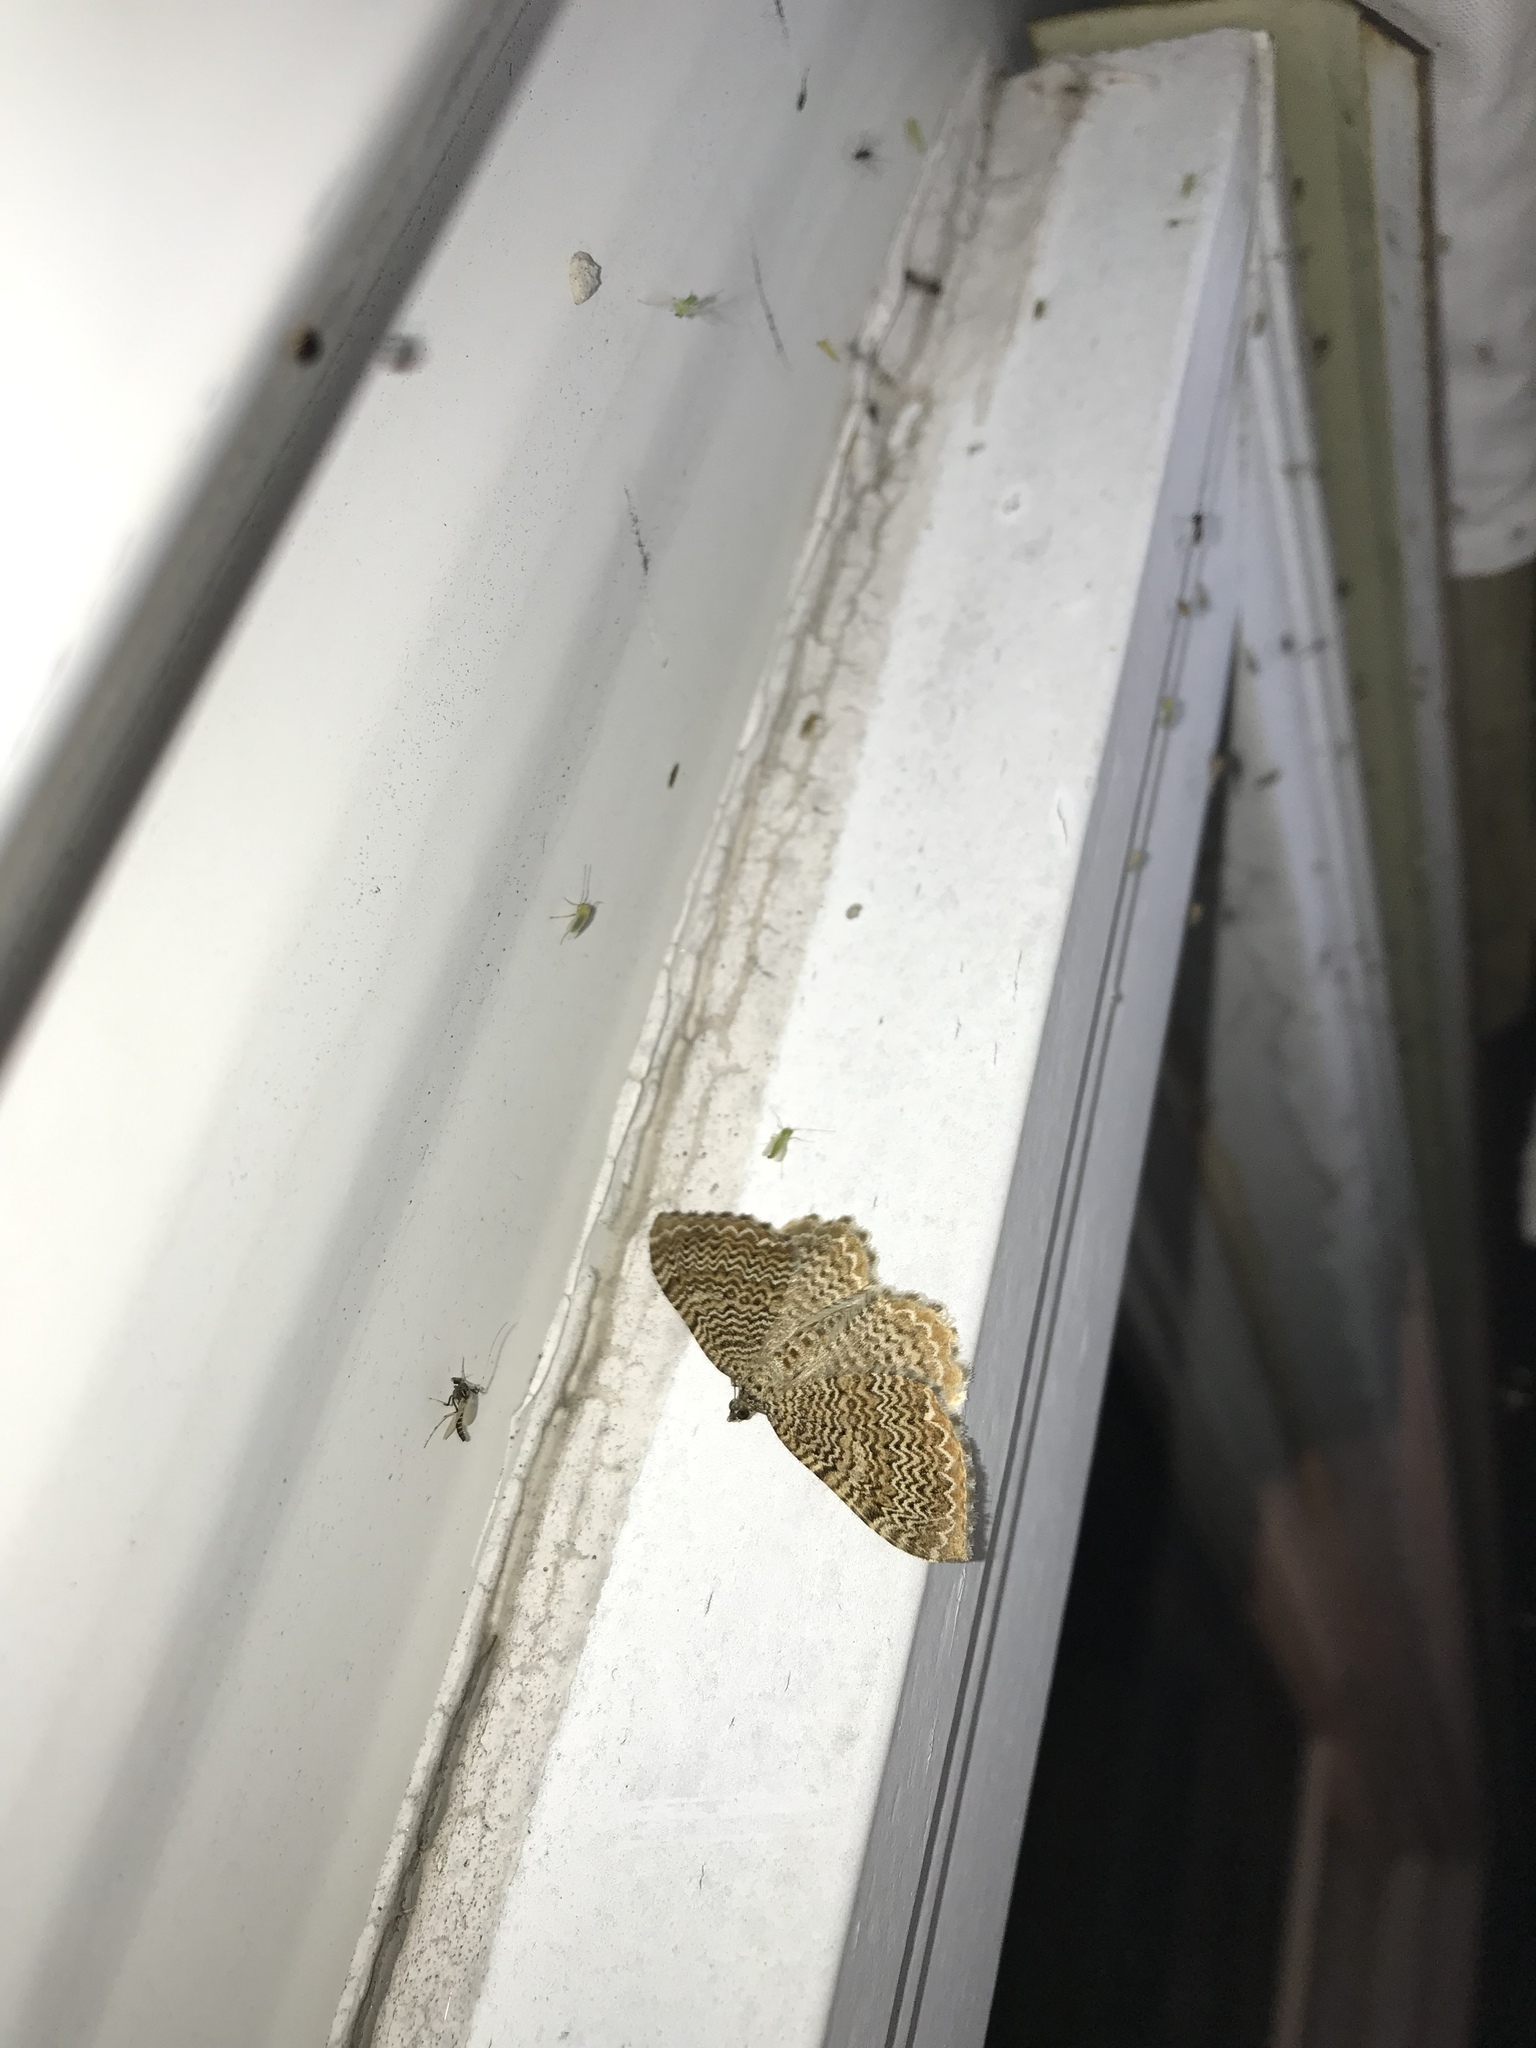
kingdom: Animalia
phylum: Arthropoda
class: Insecta
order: Lepidoptera
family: Geometridae
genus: Rheumaptera
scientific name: Rheumaptera prunivorata
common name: Cherry scallop shell moth
